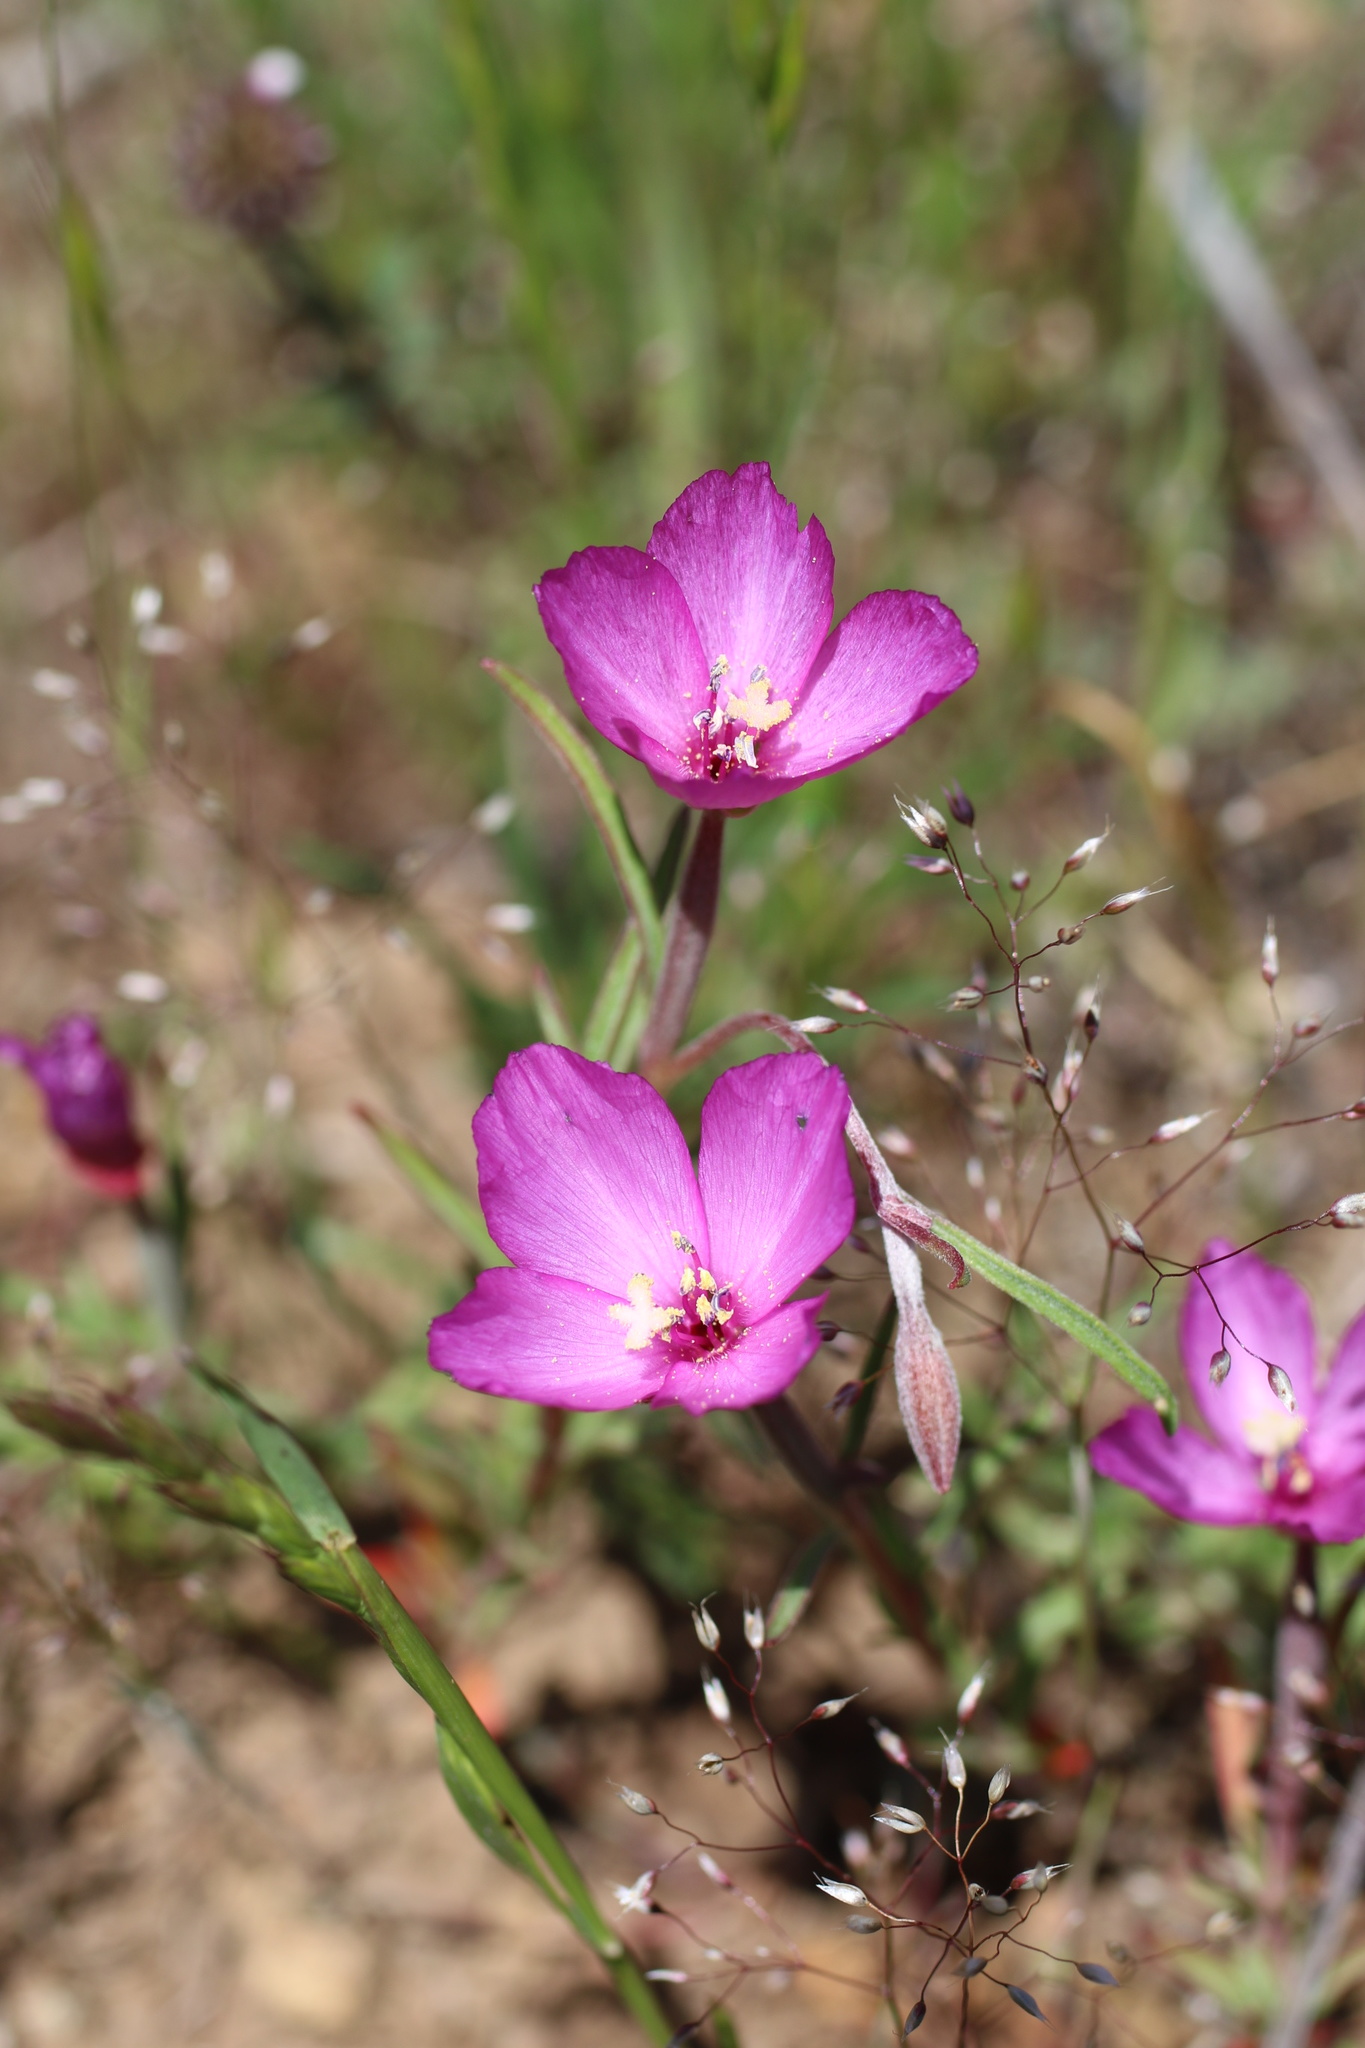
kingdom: Plantae
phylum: Tracheophyta
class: Magnoliopsida
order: Myrtales
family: Onagraceae
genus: Clarkia
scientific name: Clarkia gracilis
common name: Graceful clarkia
